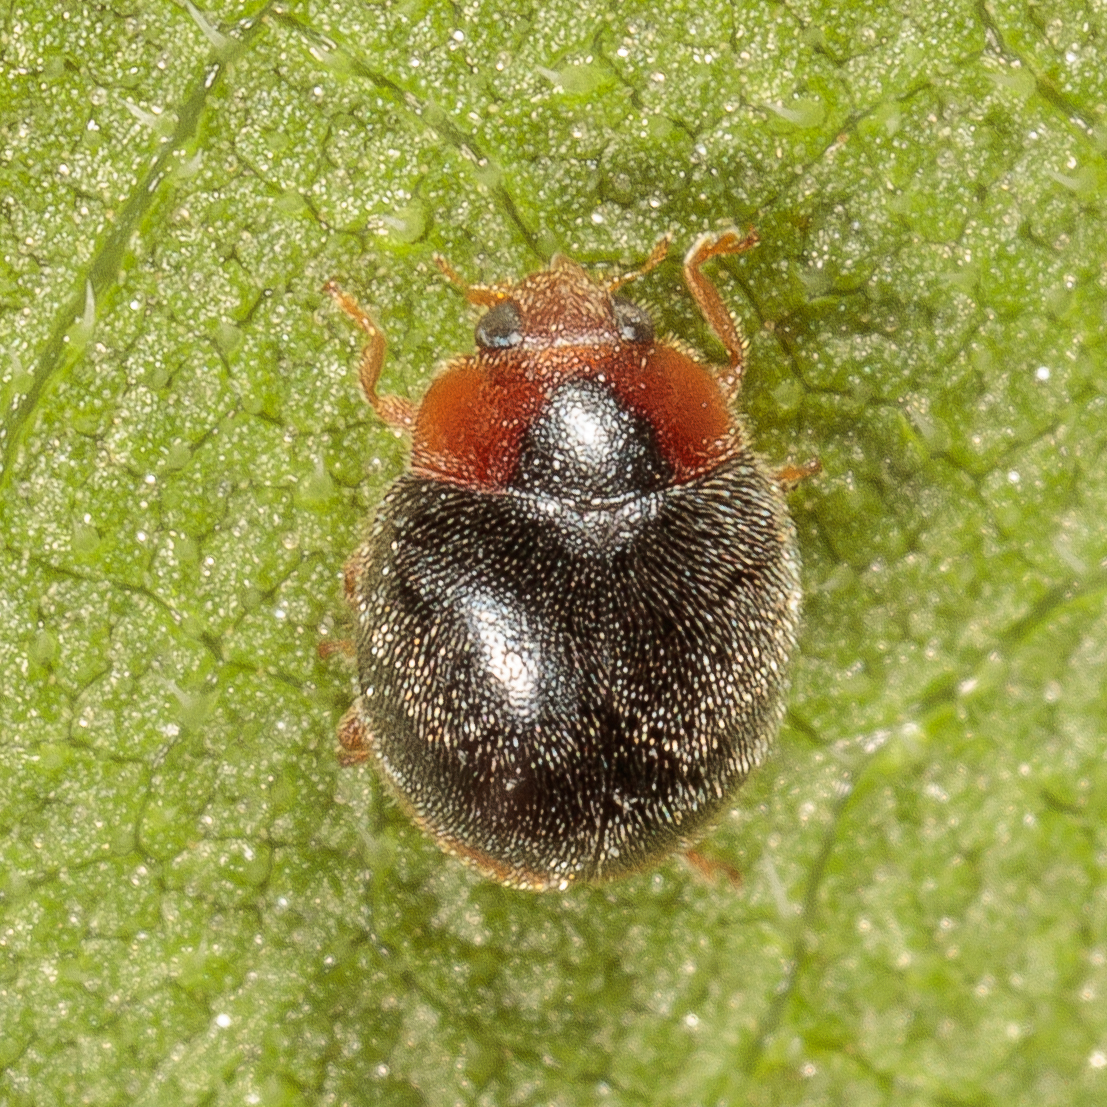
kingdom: Animalia
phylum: Arthropoda
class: Insecta
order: Coleoptera
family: Coccinellidae
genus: Scymnus
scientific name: Scymnus louisianae
